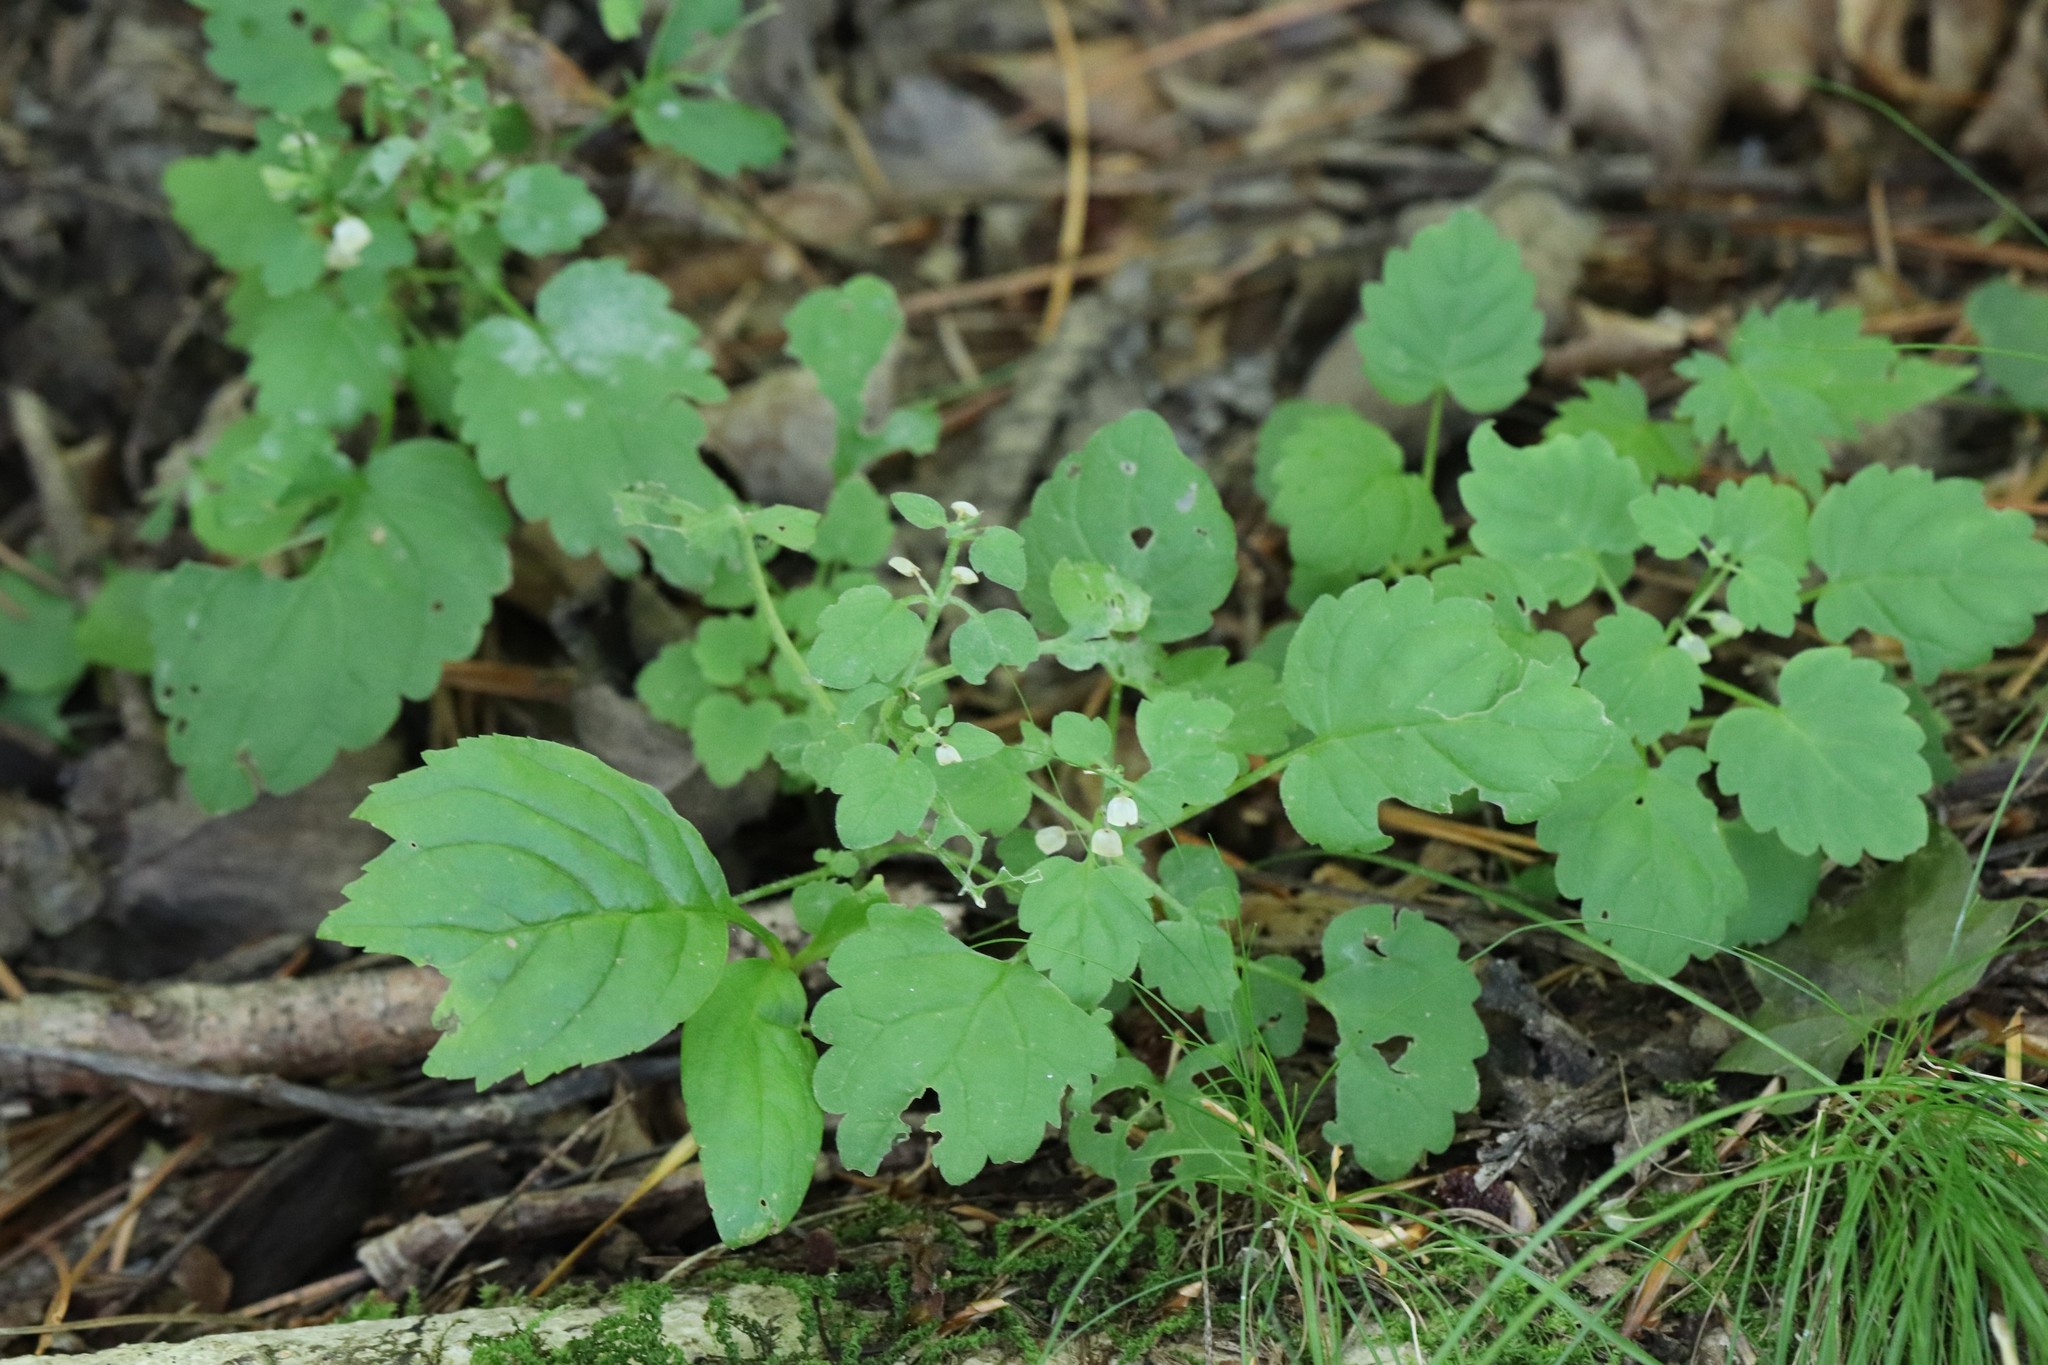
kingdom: Plantae
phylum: Tracheophyta
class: Magnoliopsida
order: Lamiales
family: Lamiaceae
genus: Scutellaria
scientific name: Scutellaria pekinensis
